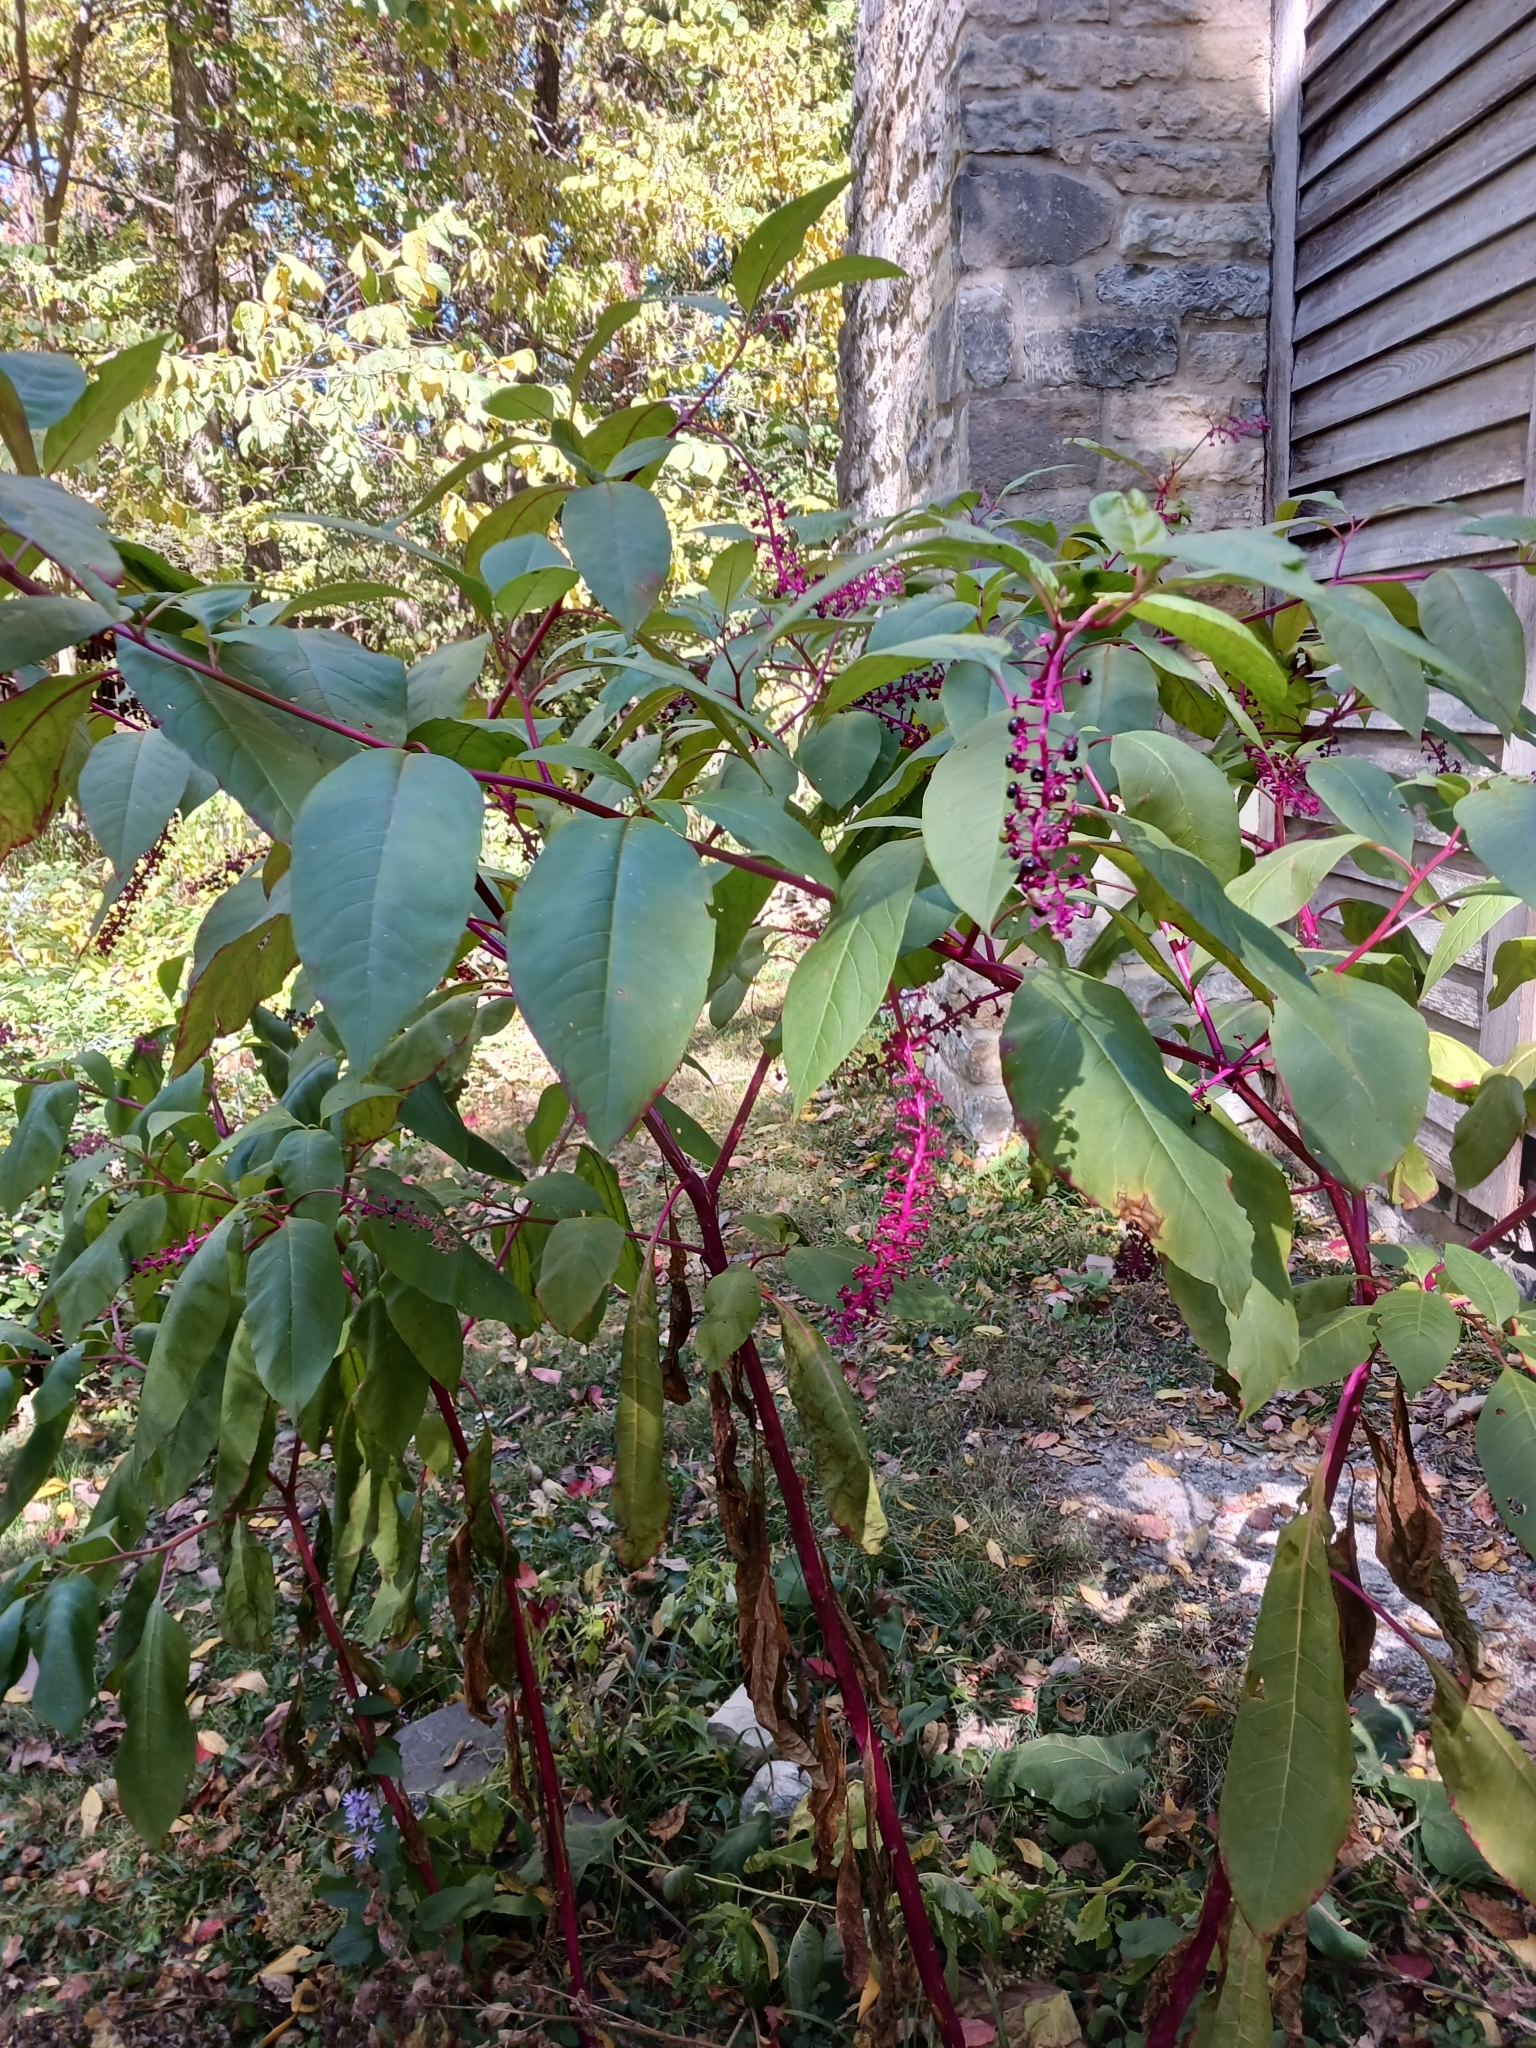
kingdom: Plantae
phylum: Tracheophyta
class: Magnoliopsida
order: Caryophyllales
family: Phytolaccaceae
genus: Phytolacca
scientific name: Phytolacca americana
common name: American pokeweed
